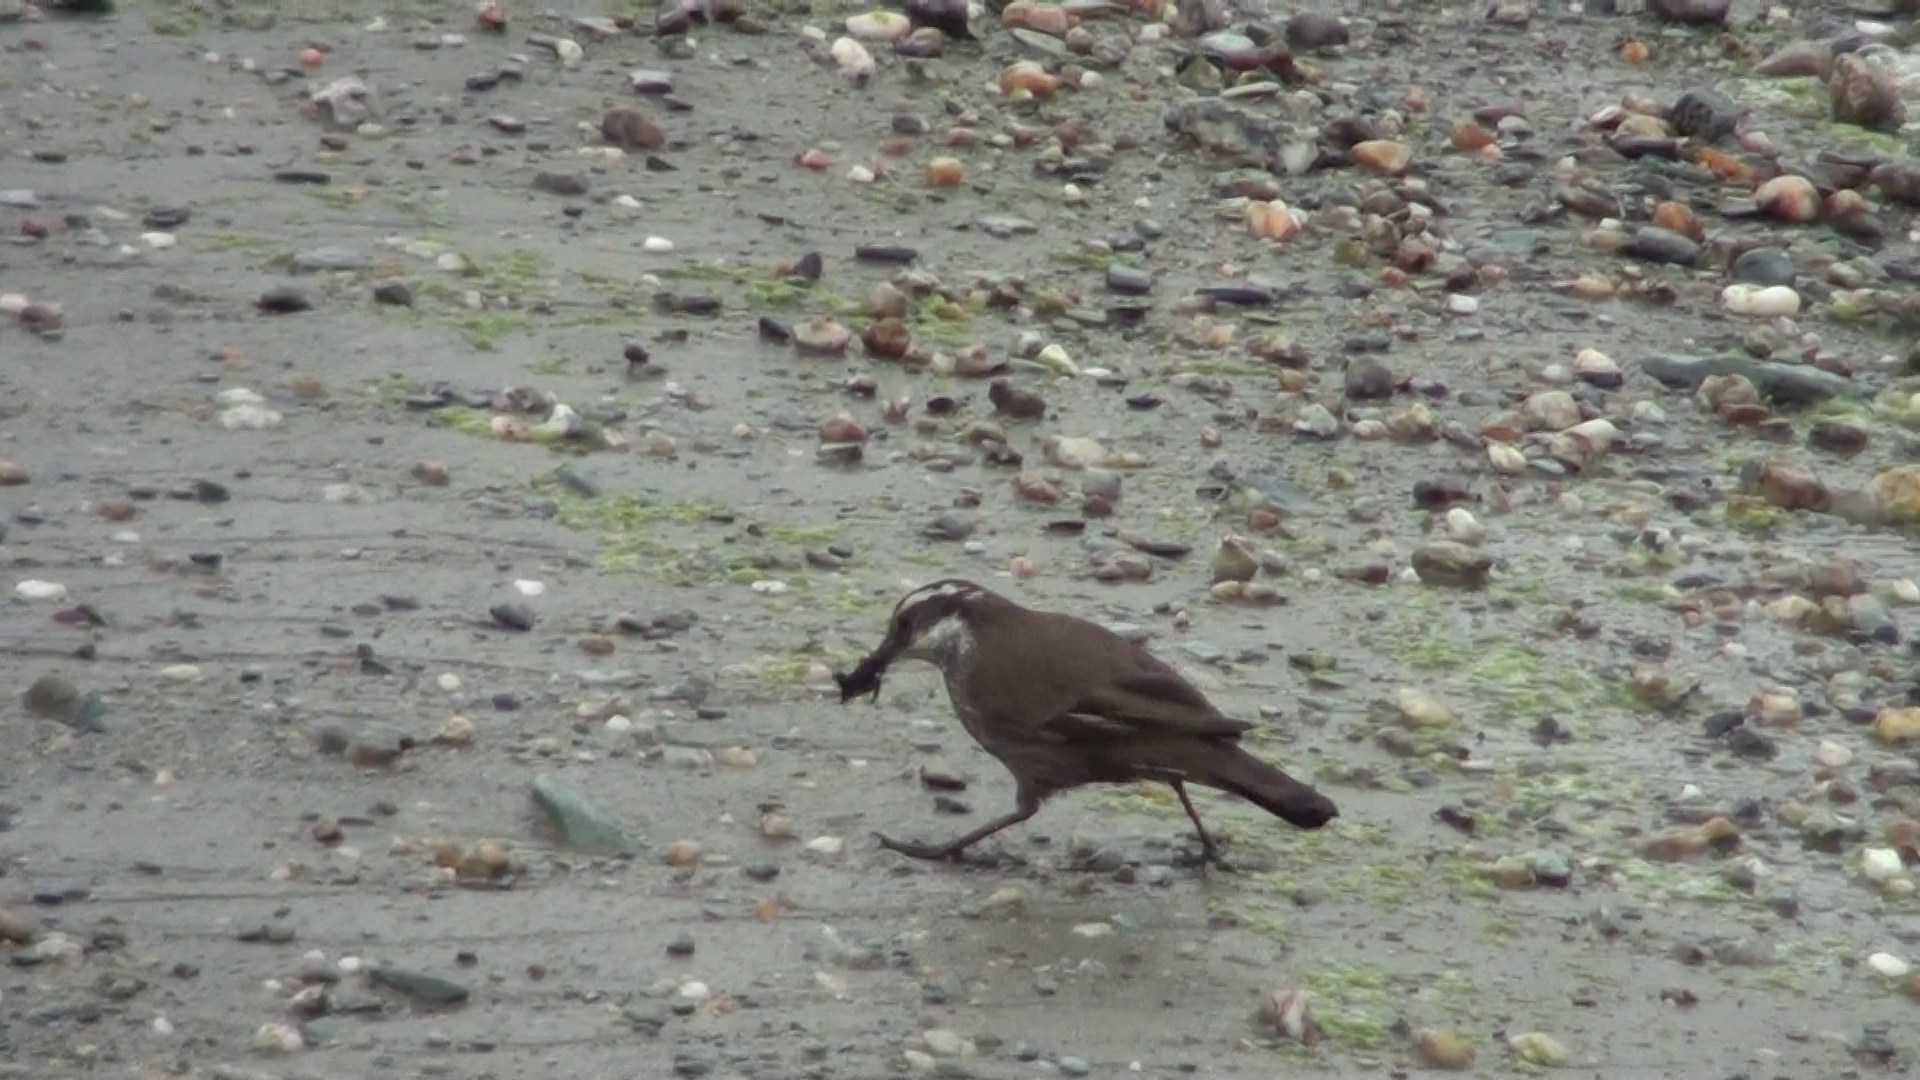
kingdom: Animalia
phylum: Chordata
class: Aves
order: Passeriformes
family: Furnariidae
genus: Cinclodes
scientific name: Cinclodes patagonicus
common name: Dark-bellied cinclodes
